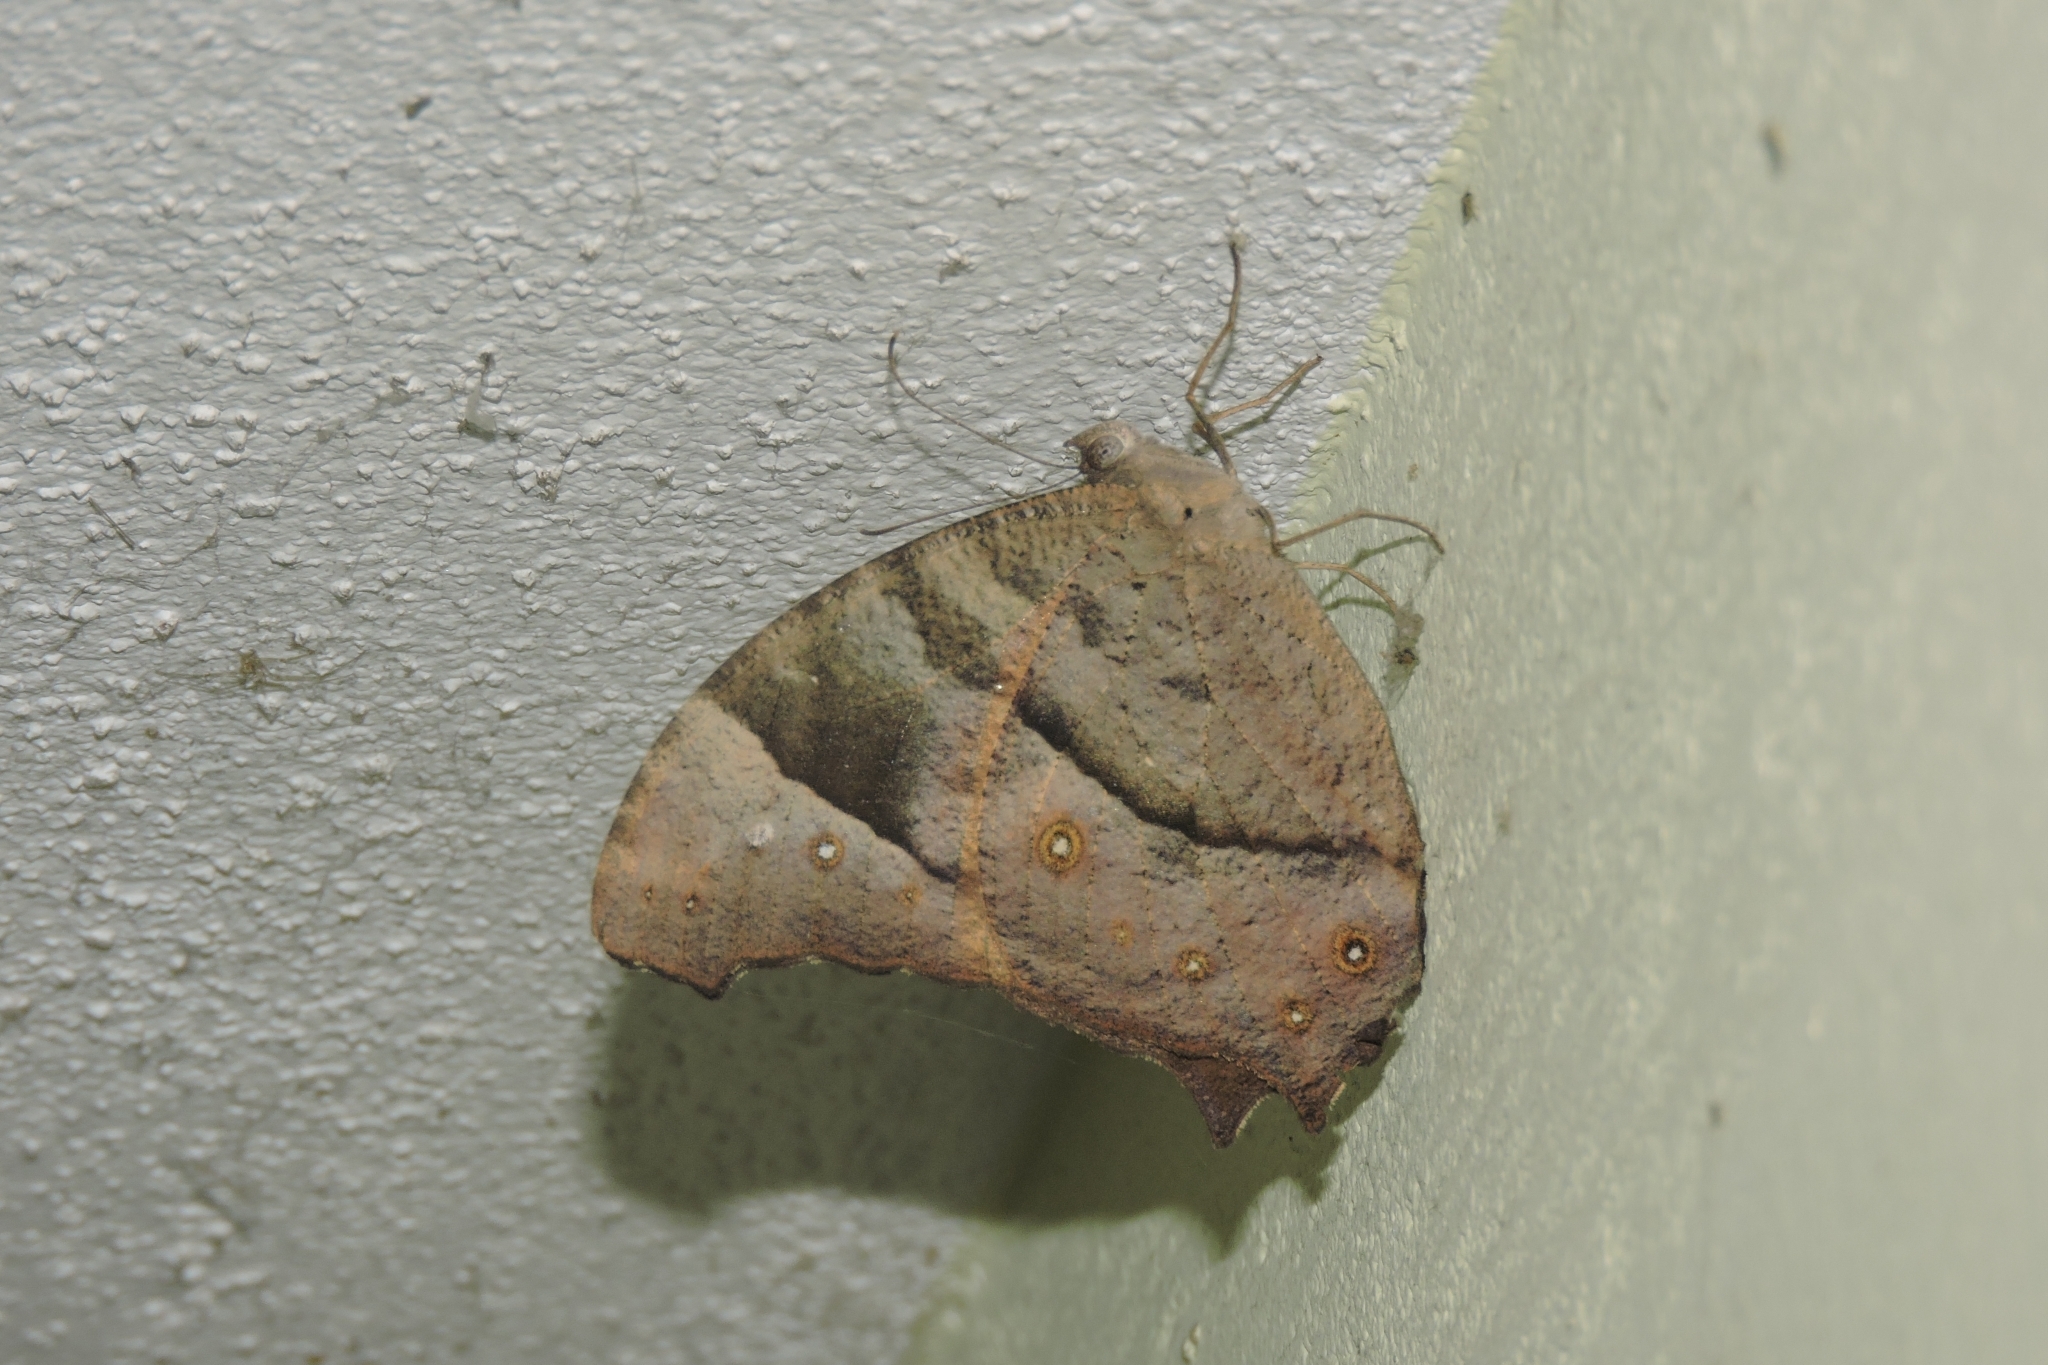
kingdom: Animalia
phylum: Arthropoda
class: Insecta
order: Lepidoptera
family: Nymphalidae
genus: Melanitis
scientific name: Melanitis leda
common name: Twilight brown
